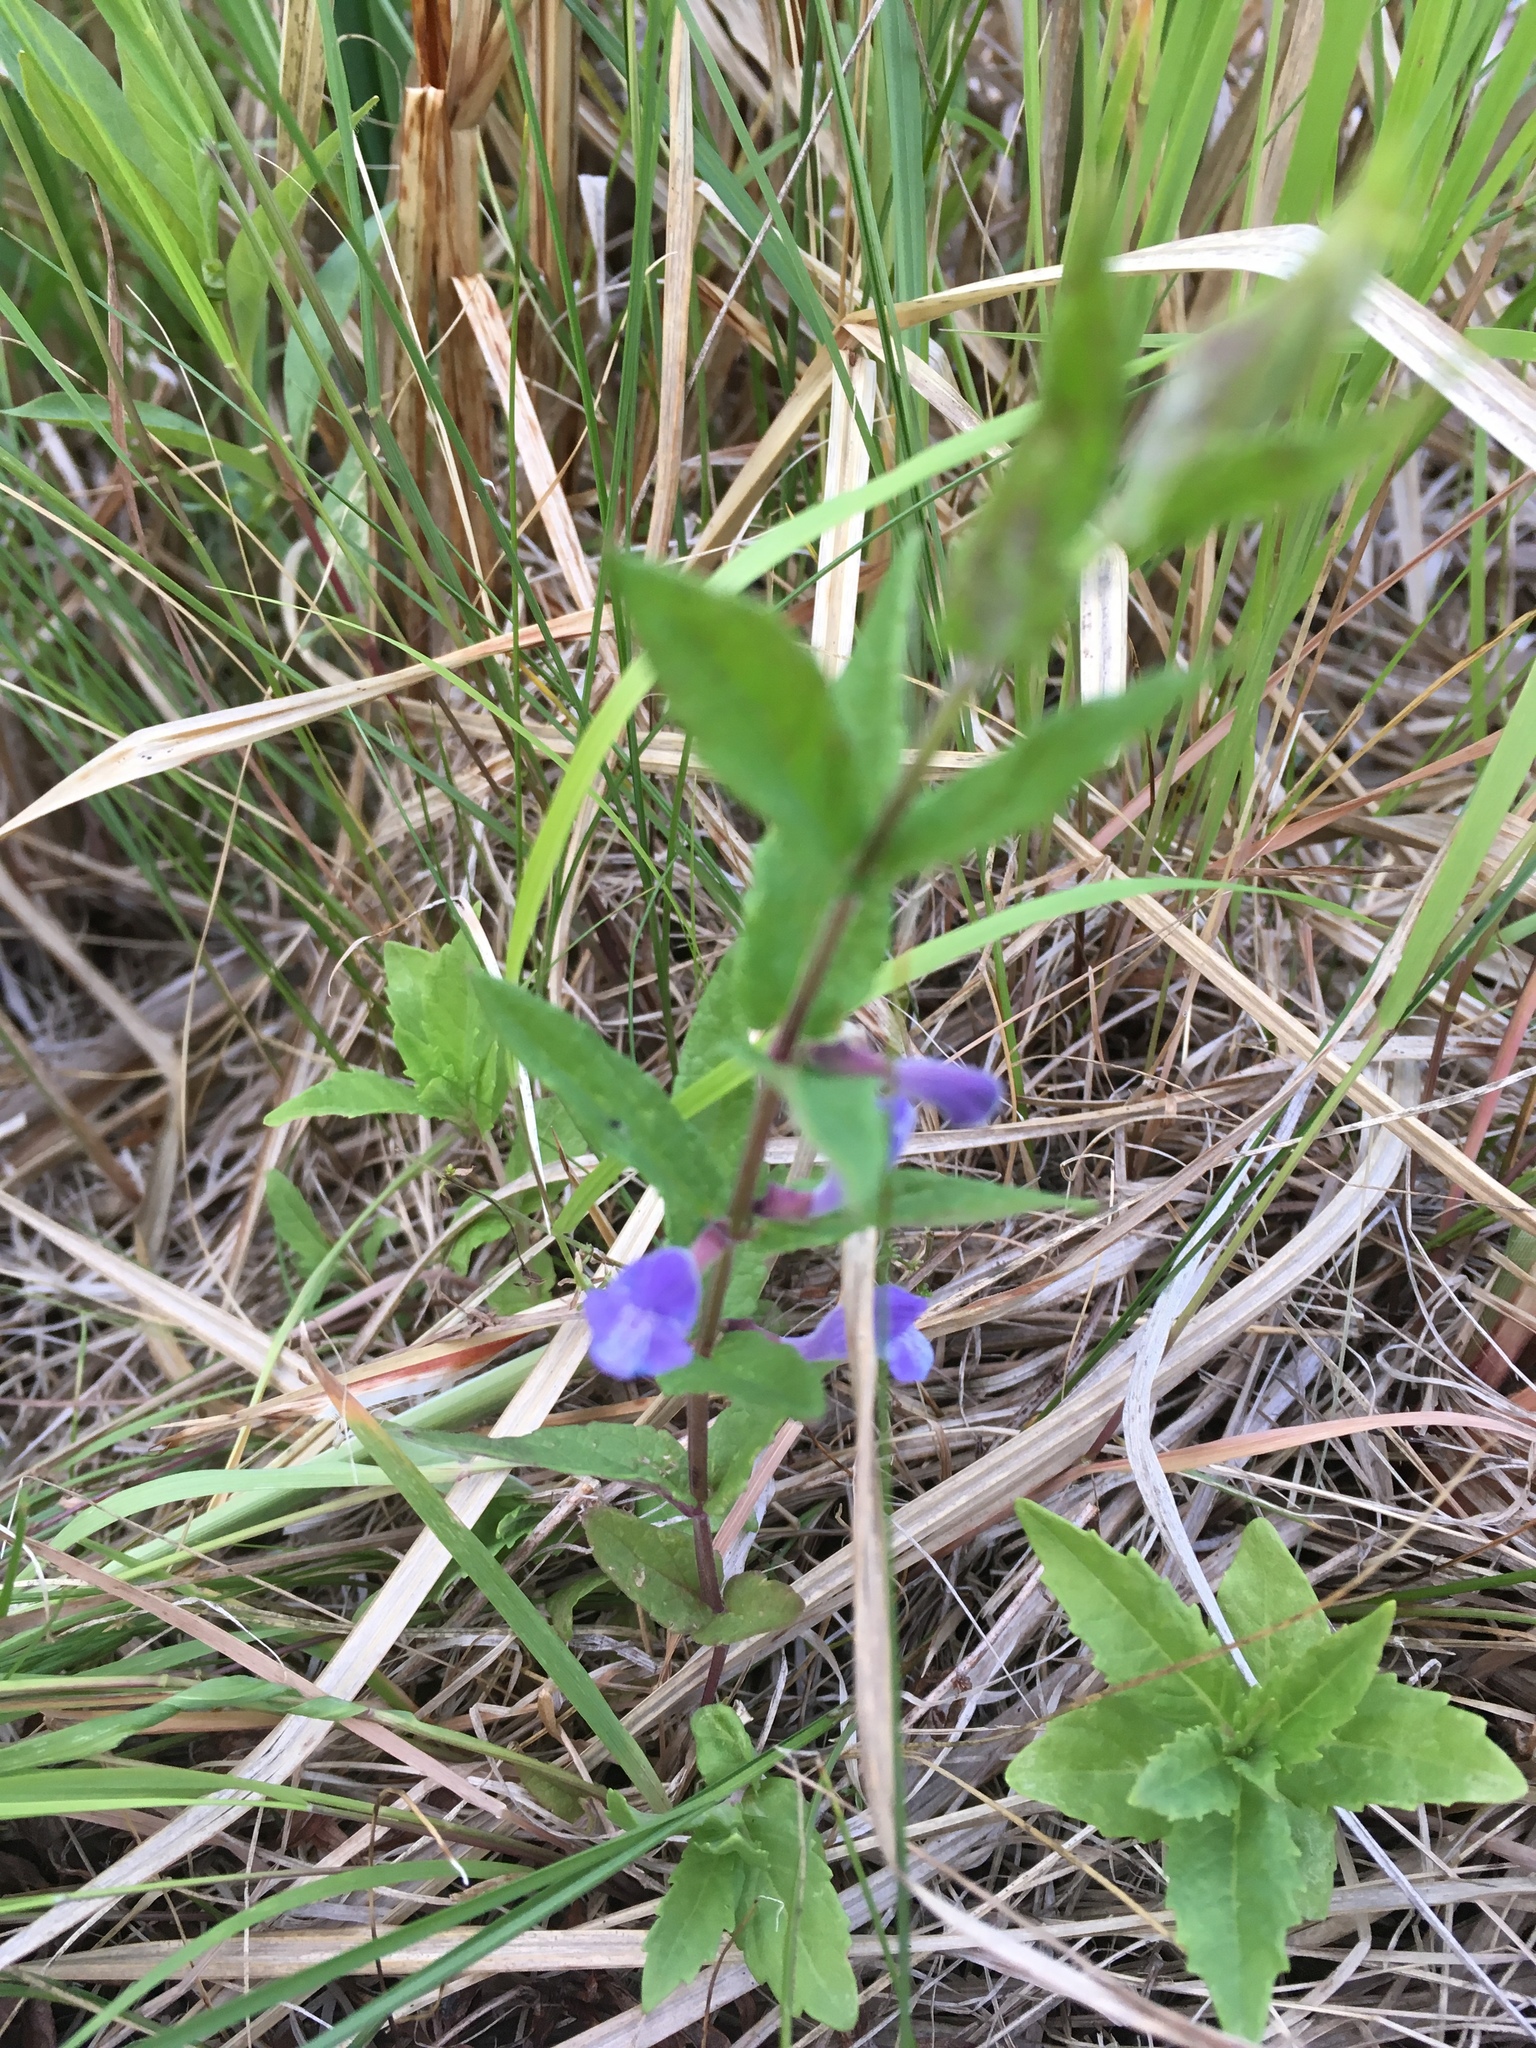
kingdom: Plantae
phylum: Tracheophyta
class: Magnoliopsida
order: Lamiales
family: Lamiaceae
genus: Scutellaria
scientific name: Scutellaria galericulata
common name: Skullcap
